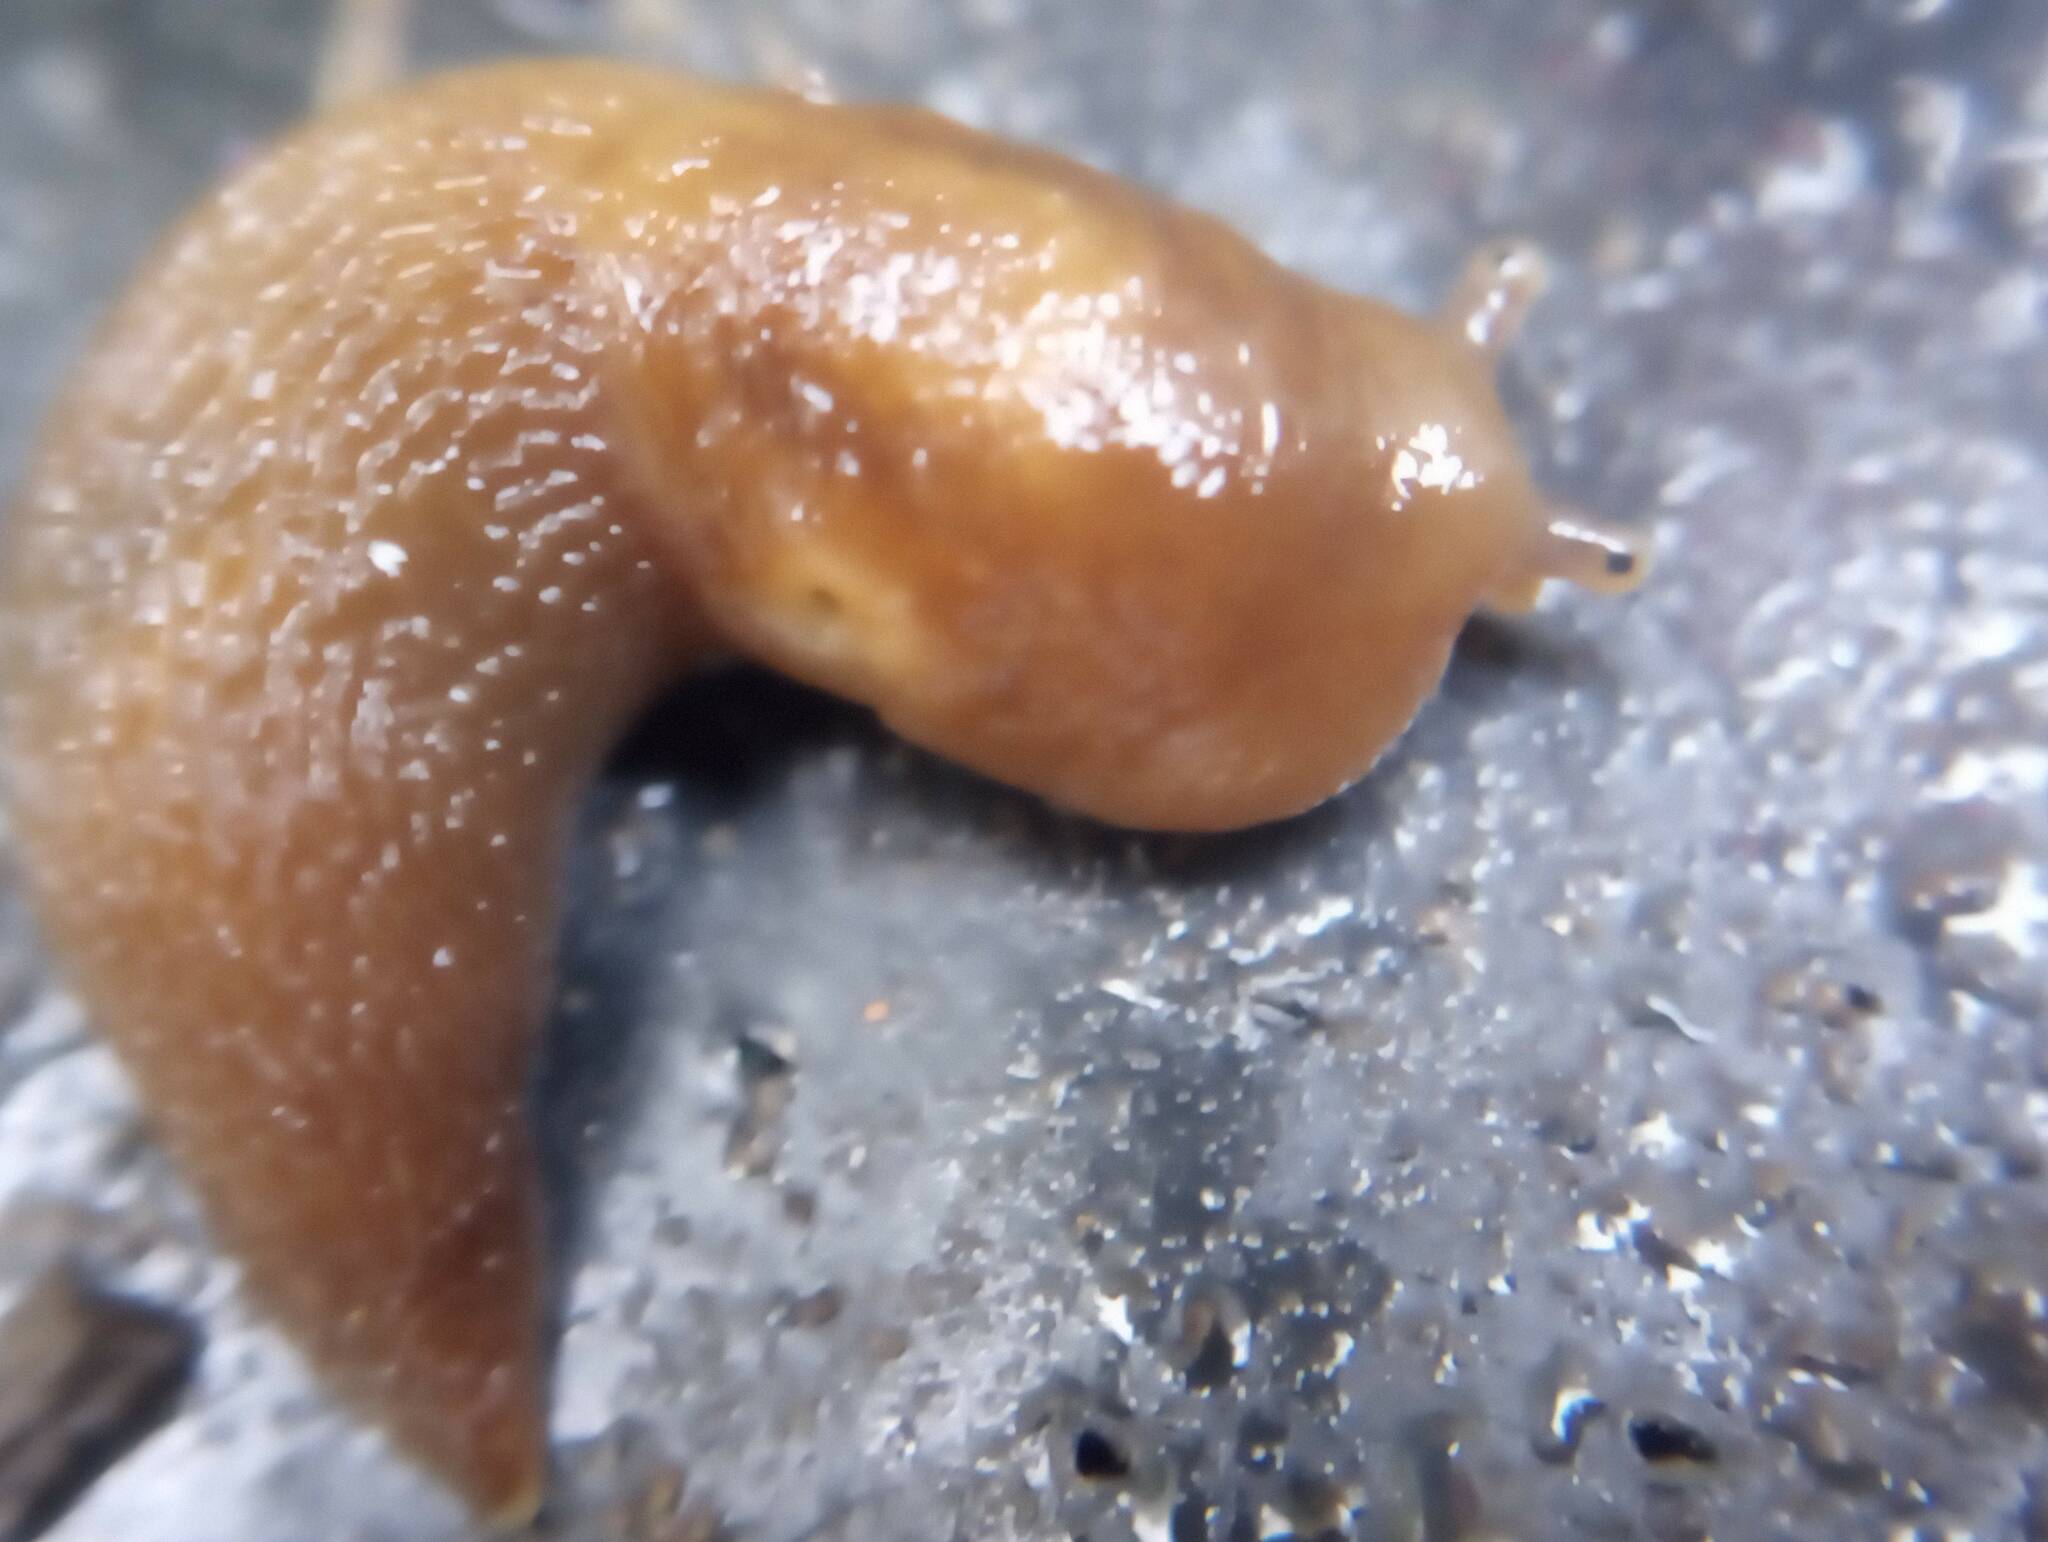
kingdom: Animalia
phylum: Mollusca
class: Gastropoda
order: Stylommatophora
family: Limacidae
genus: Ambigolimax
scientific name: Ambigolimax
